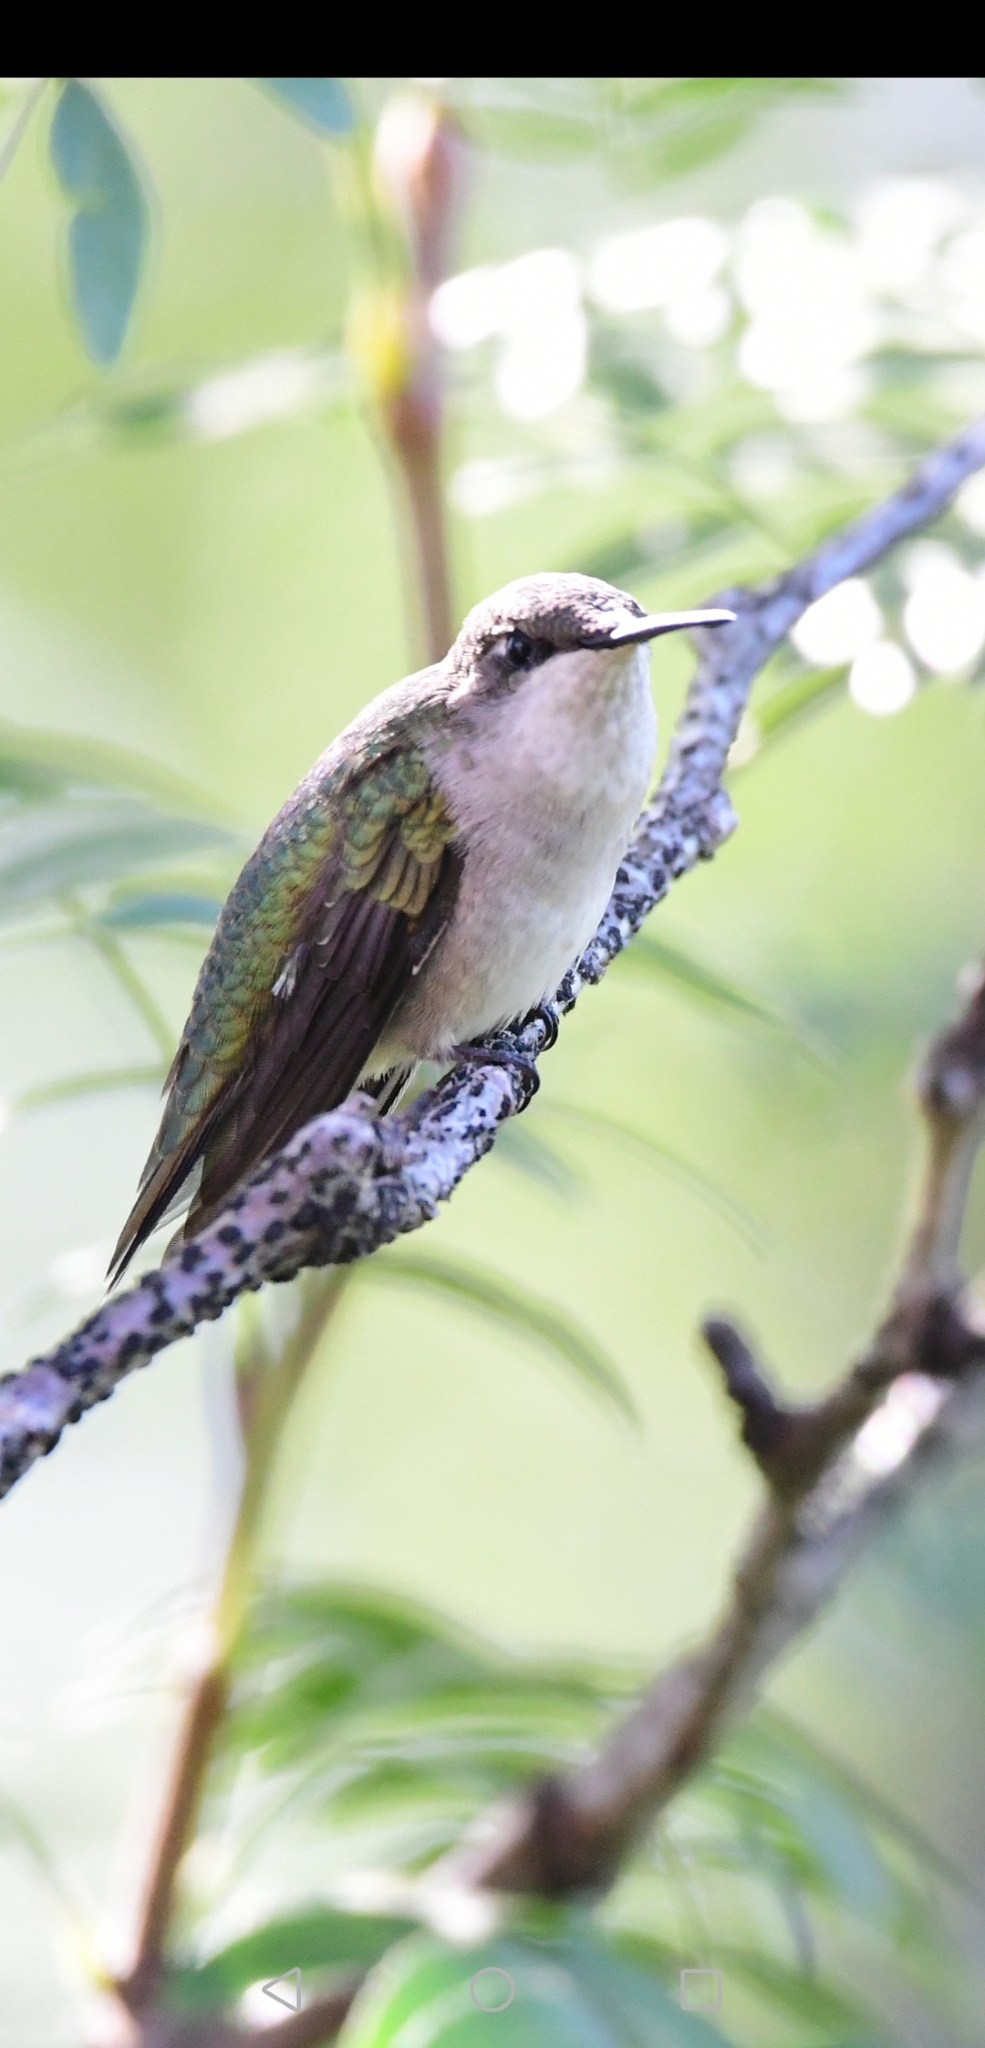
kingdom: Animalia
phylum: Chordata
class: Aves
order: Apodiformes
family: Trochilidae
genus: Archilochus
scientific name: Archilochus colubris
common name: Ruby-throated hummingbird
